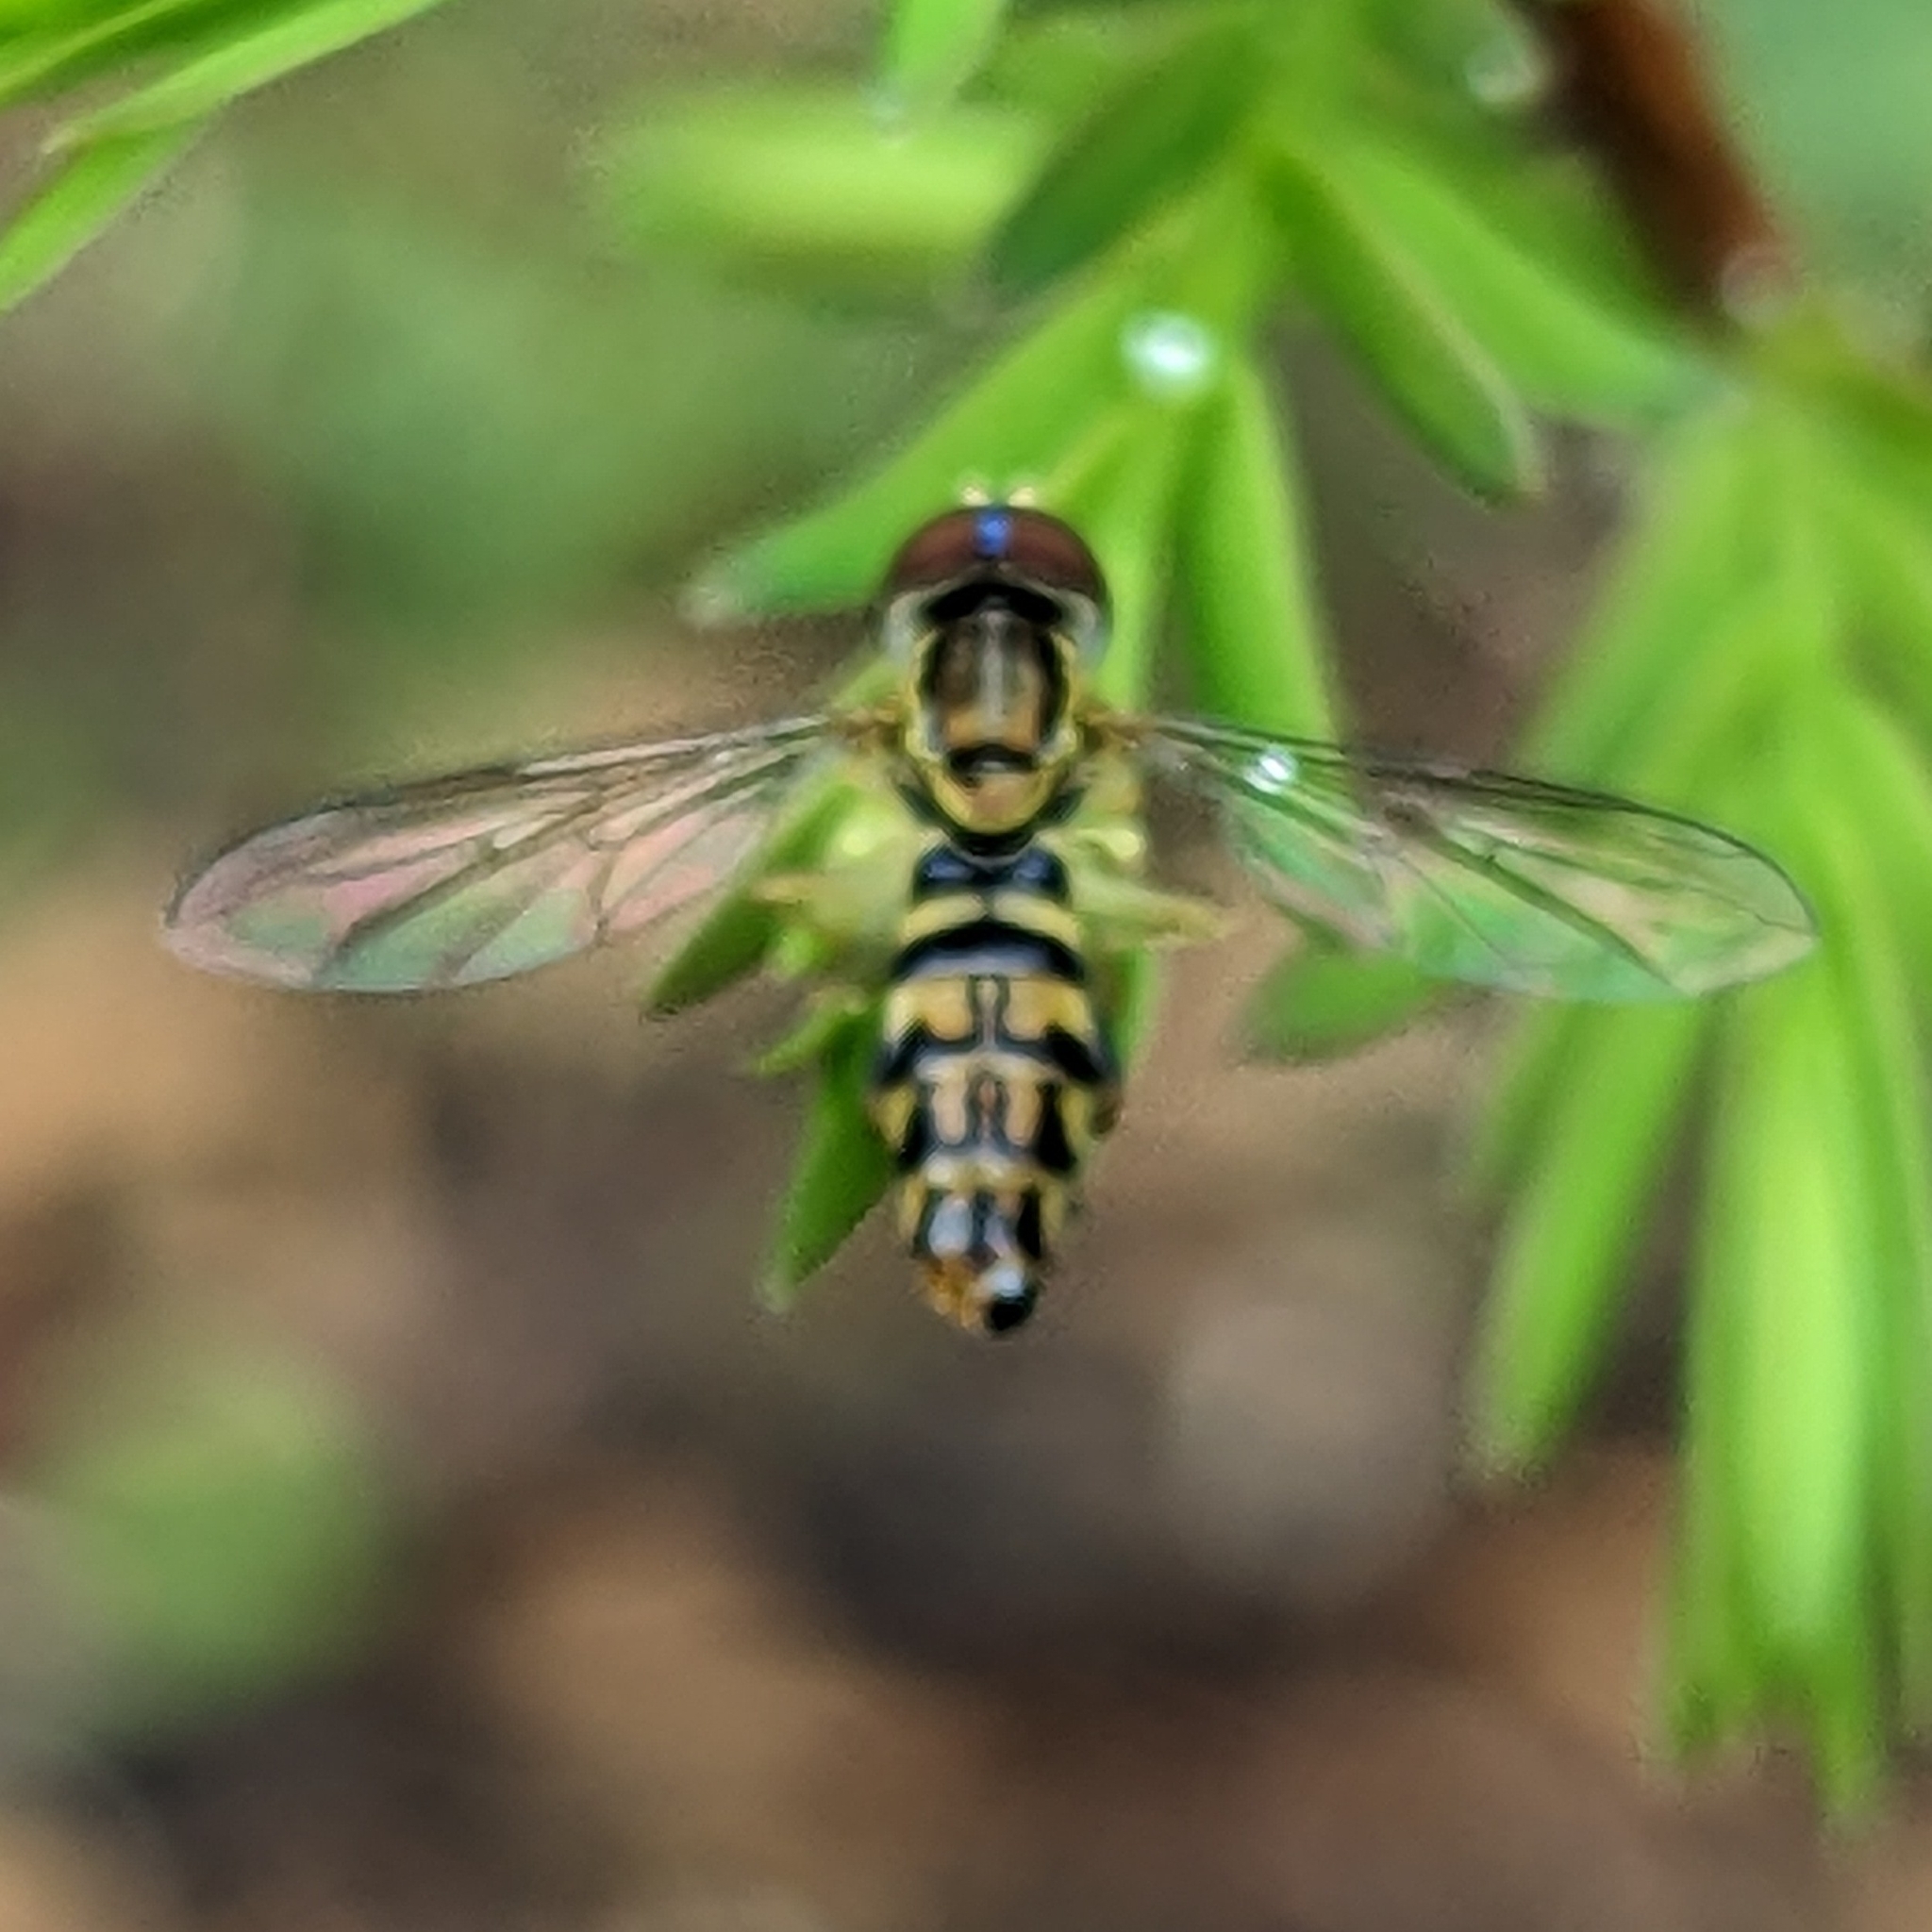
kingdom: Animalia
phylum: Arthropoda
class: Insecta
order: Diptera
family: Syrphidae
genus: Toxomerus
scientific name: Toxomerus geminatus
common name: Eastern calligrapher
